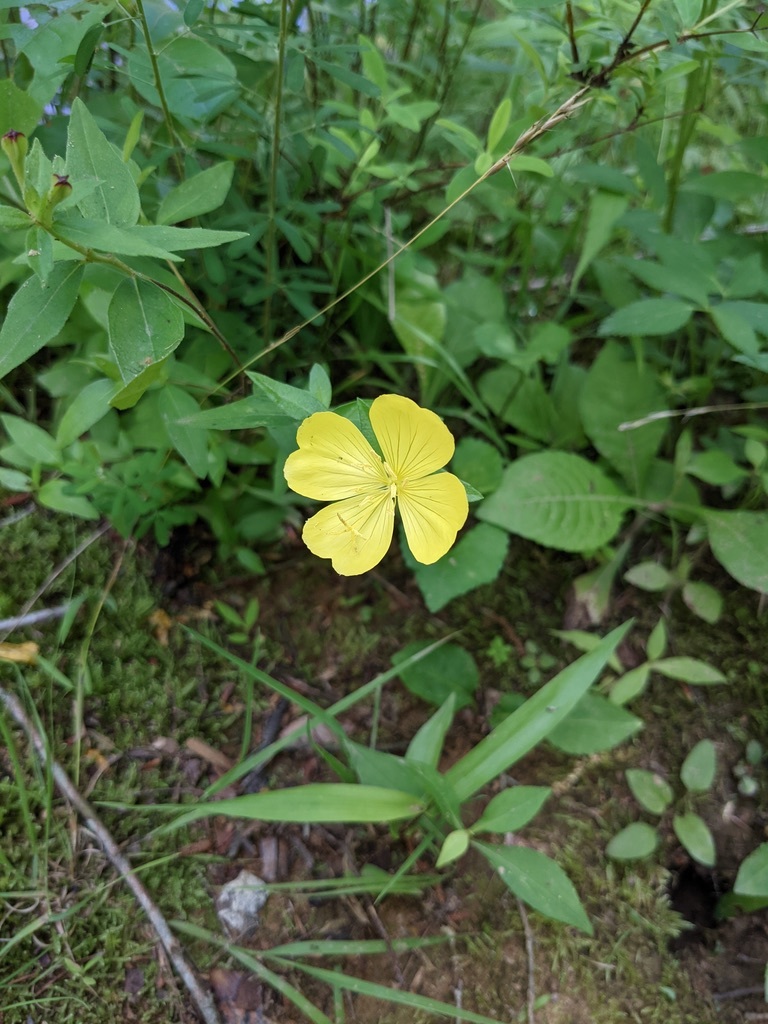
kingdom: Plantae
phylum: Tracheophyta
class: Magnoliopsida
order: Myrtales
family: Onagraceae
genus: Oenothera
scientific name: Oenothera fruticosa
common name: Southern sundrops
